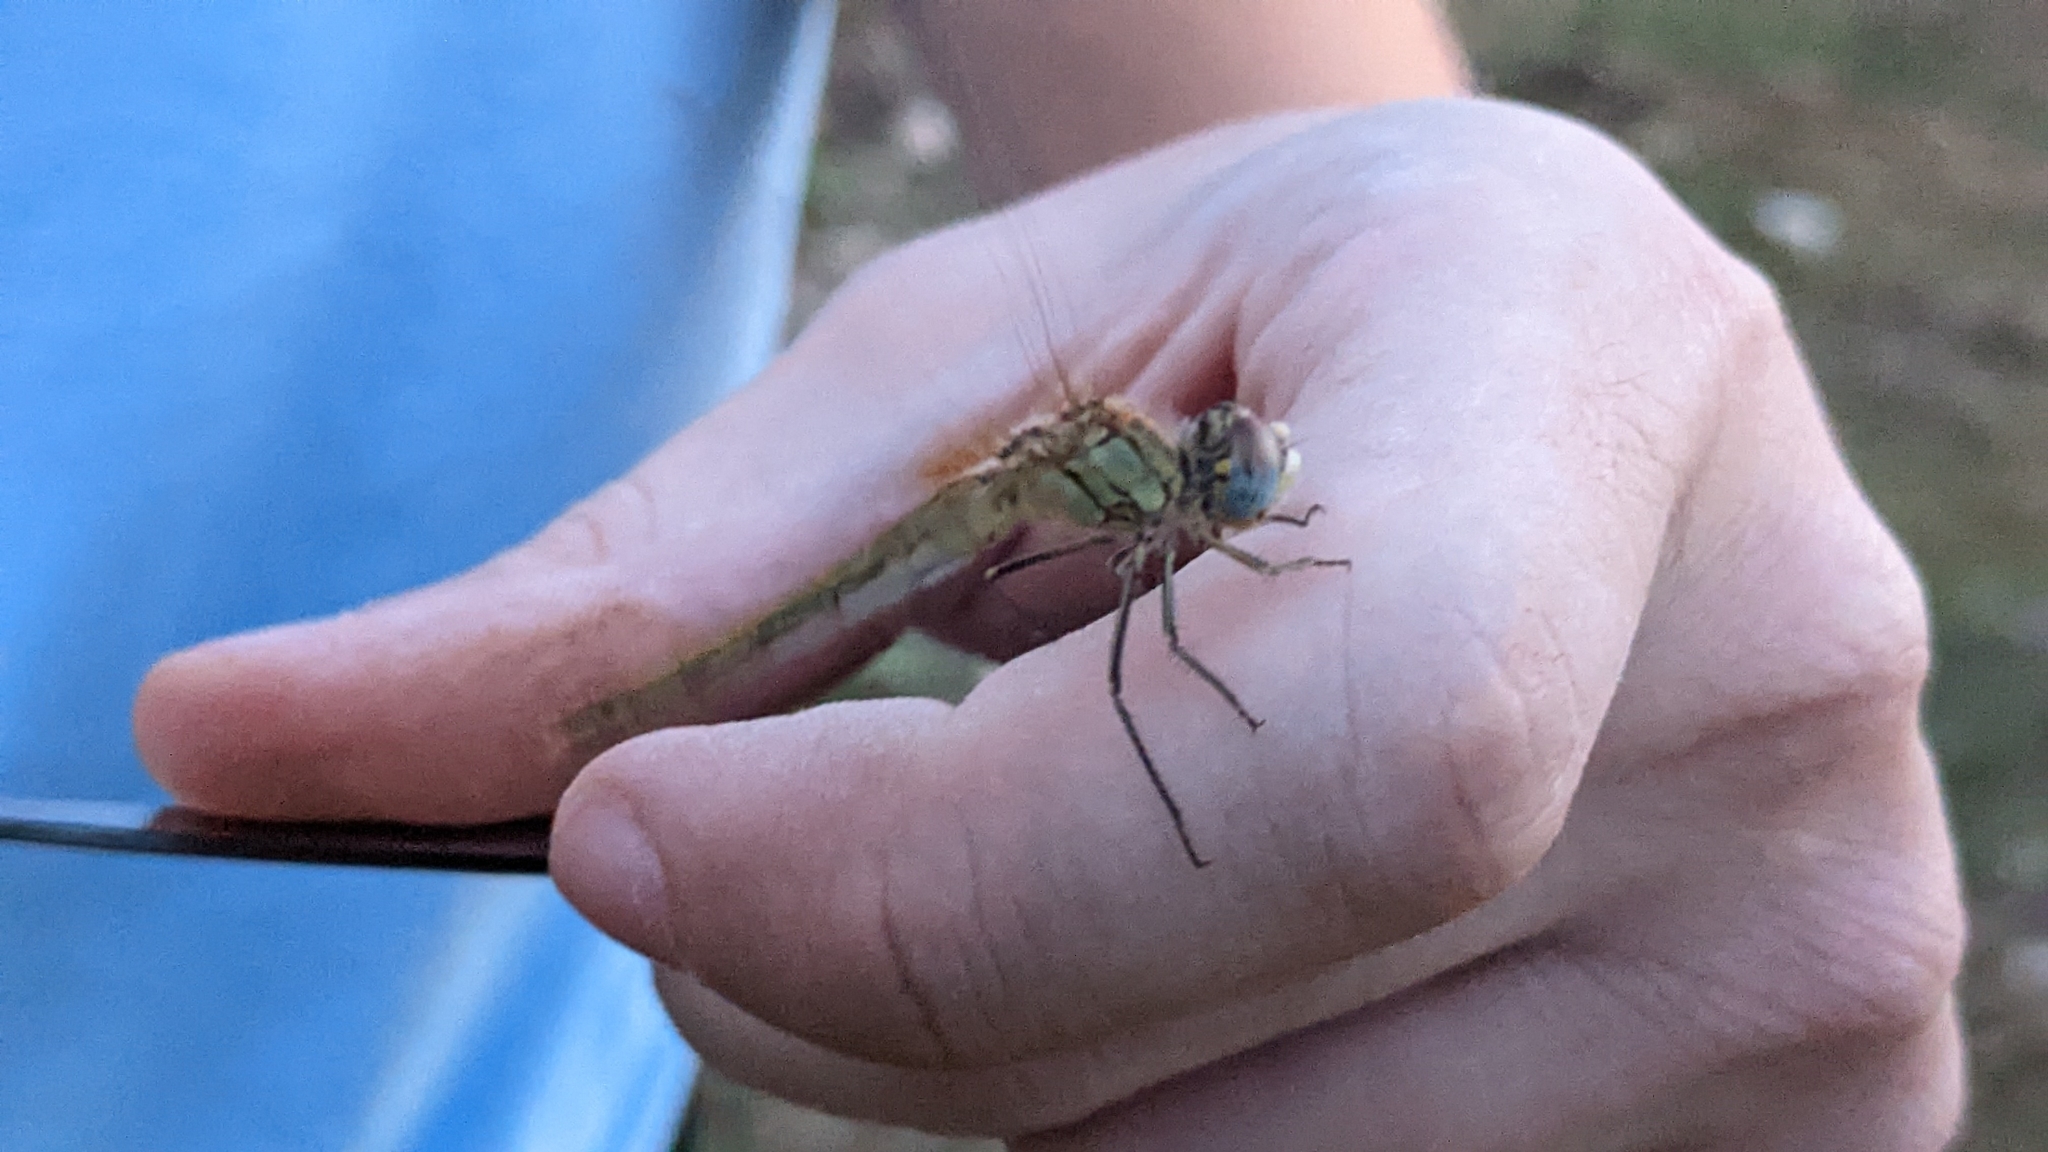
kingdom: Animalia
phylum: Arthropoda
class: Insecta
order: Odonata
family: Libellulidae
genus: Sympetrum
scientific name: Sympetrum fonscolombii
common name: Red-veined darter
